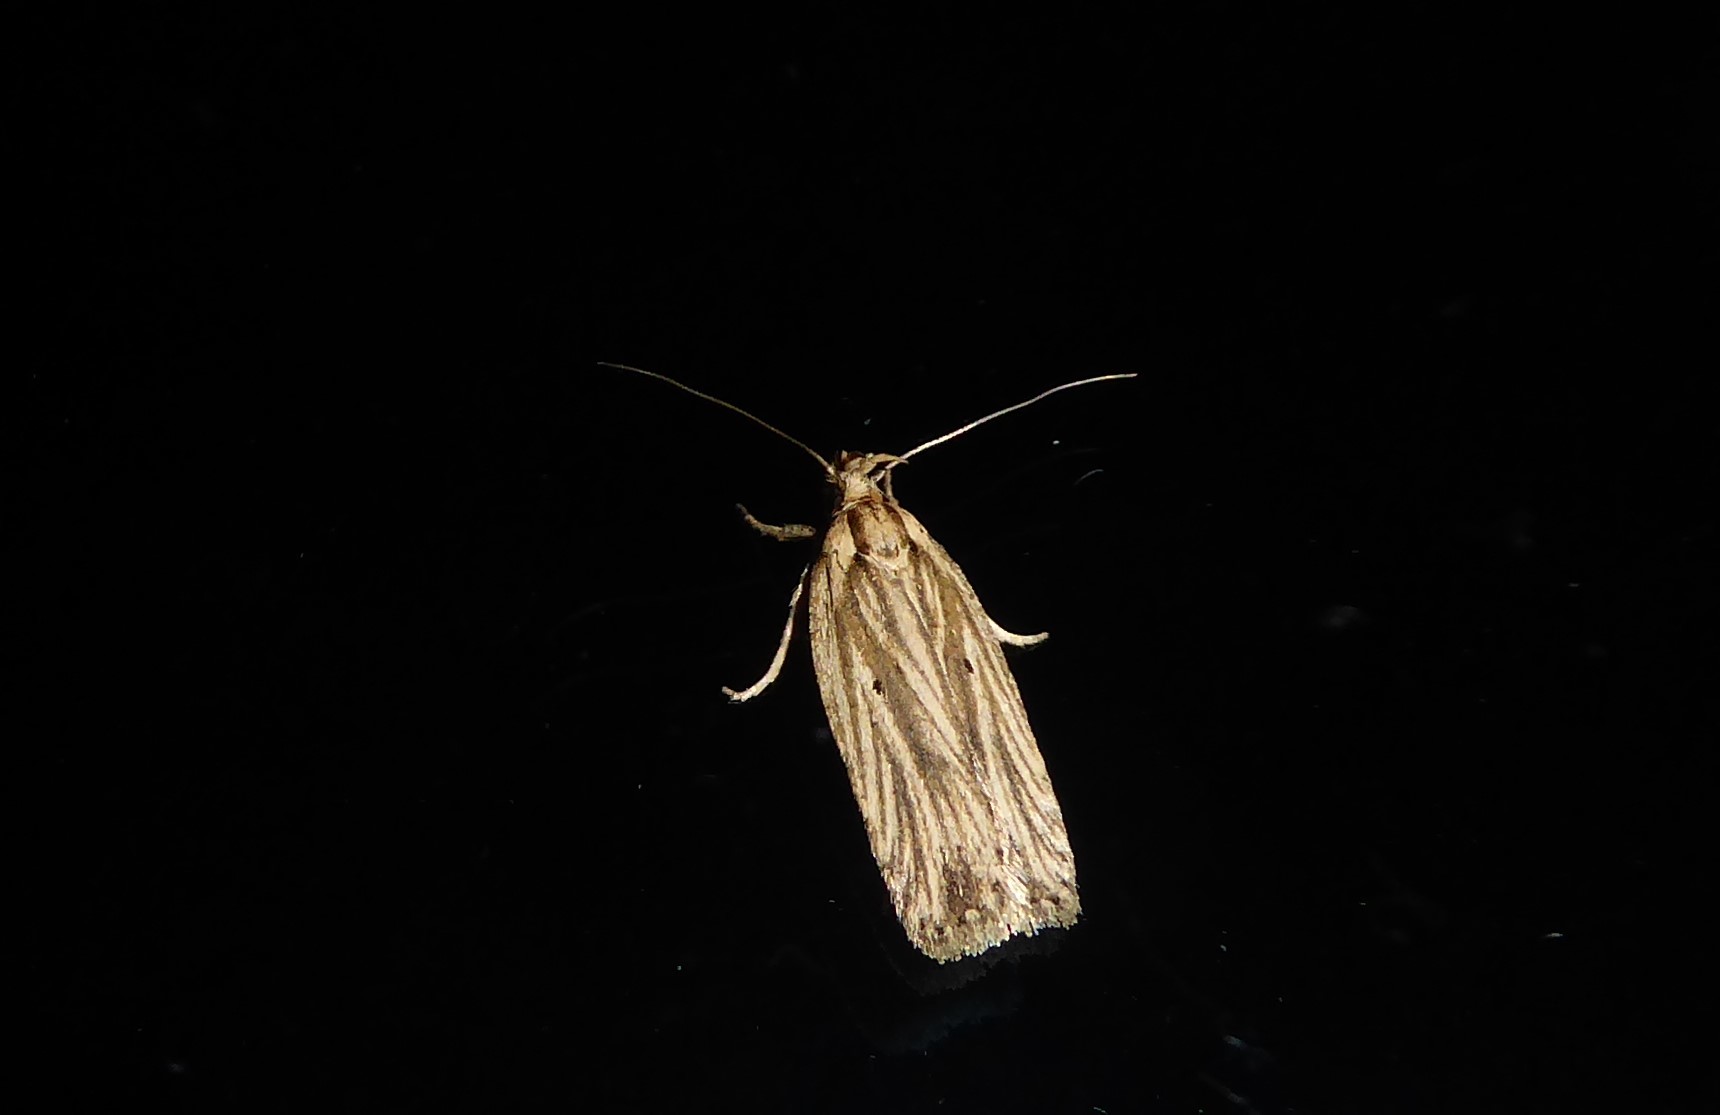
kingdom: Animalia
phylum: Arthropoda
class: Insecta
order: Lepidoptera
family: Depressariidae
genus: Agonopterix
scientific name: Agonopterix
